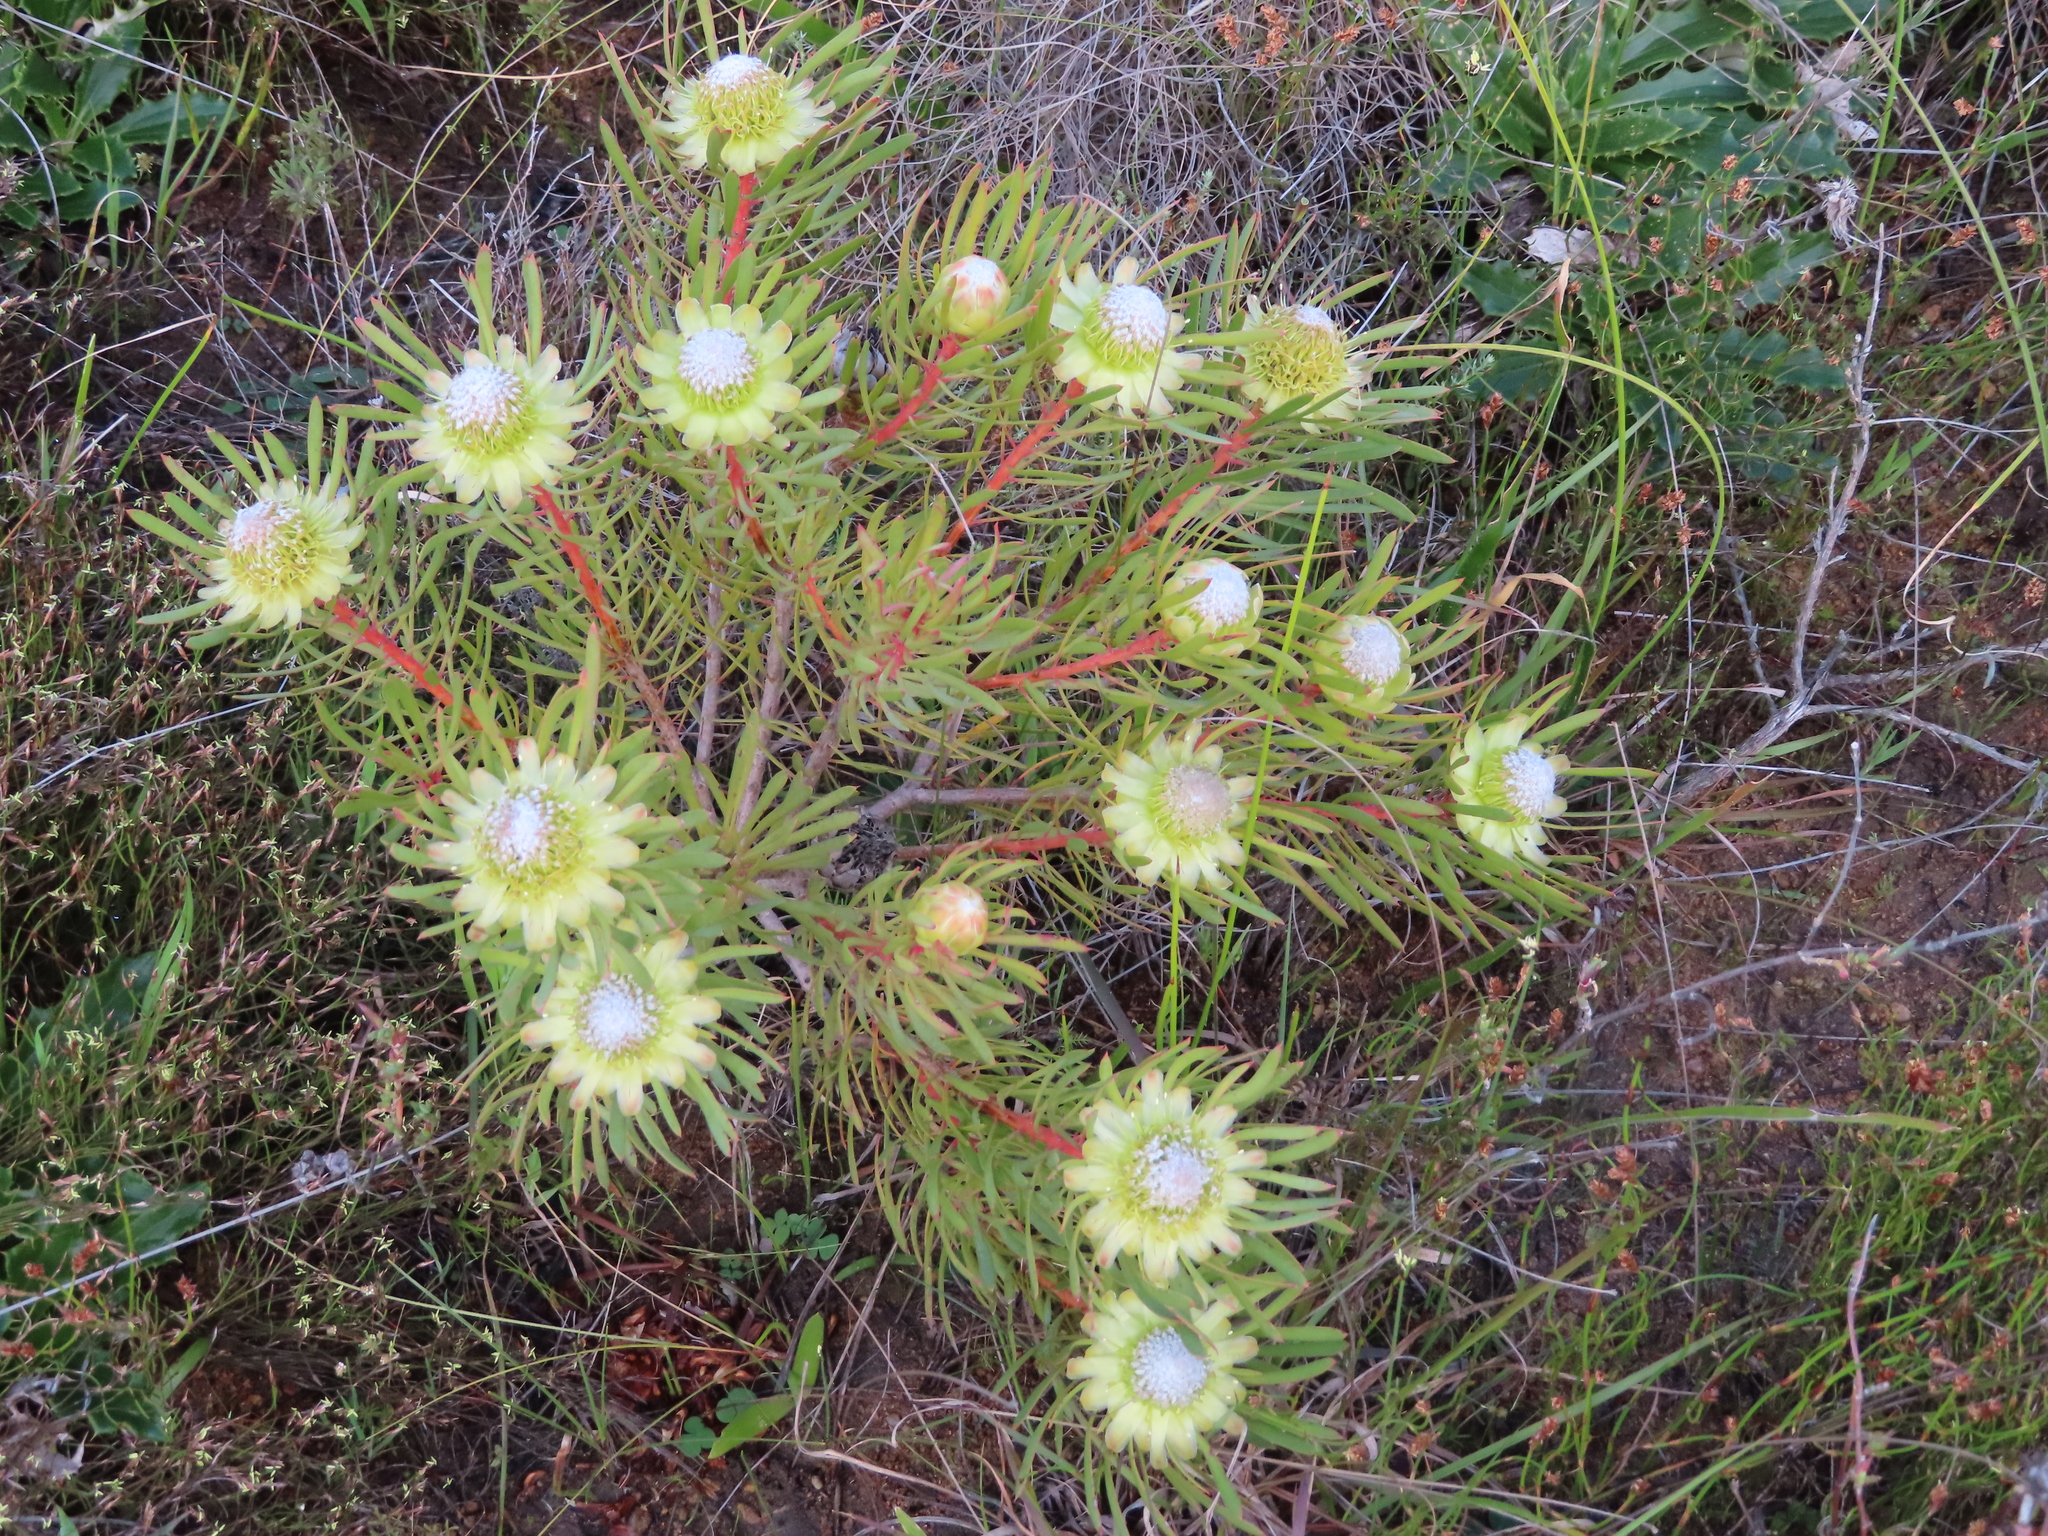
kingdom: Plantae
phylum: Tracheophyta
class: Magnoliopsida
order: Proteales
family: Proteaceae
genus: Protea
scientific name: Protea scolymocephala
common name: Thistle sugarbush
